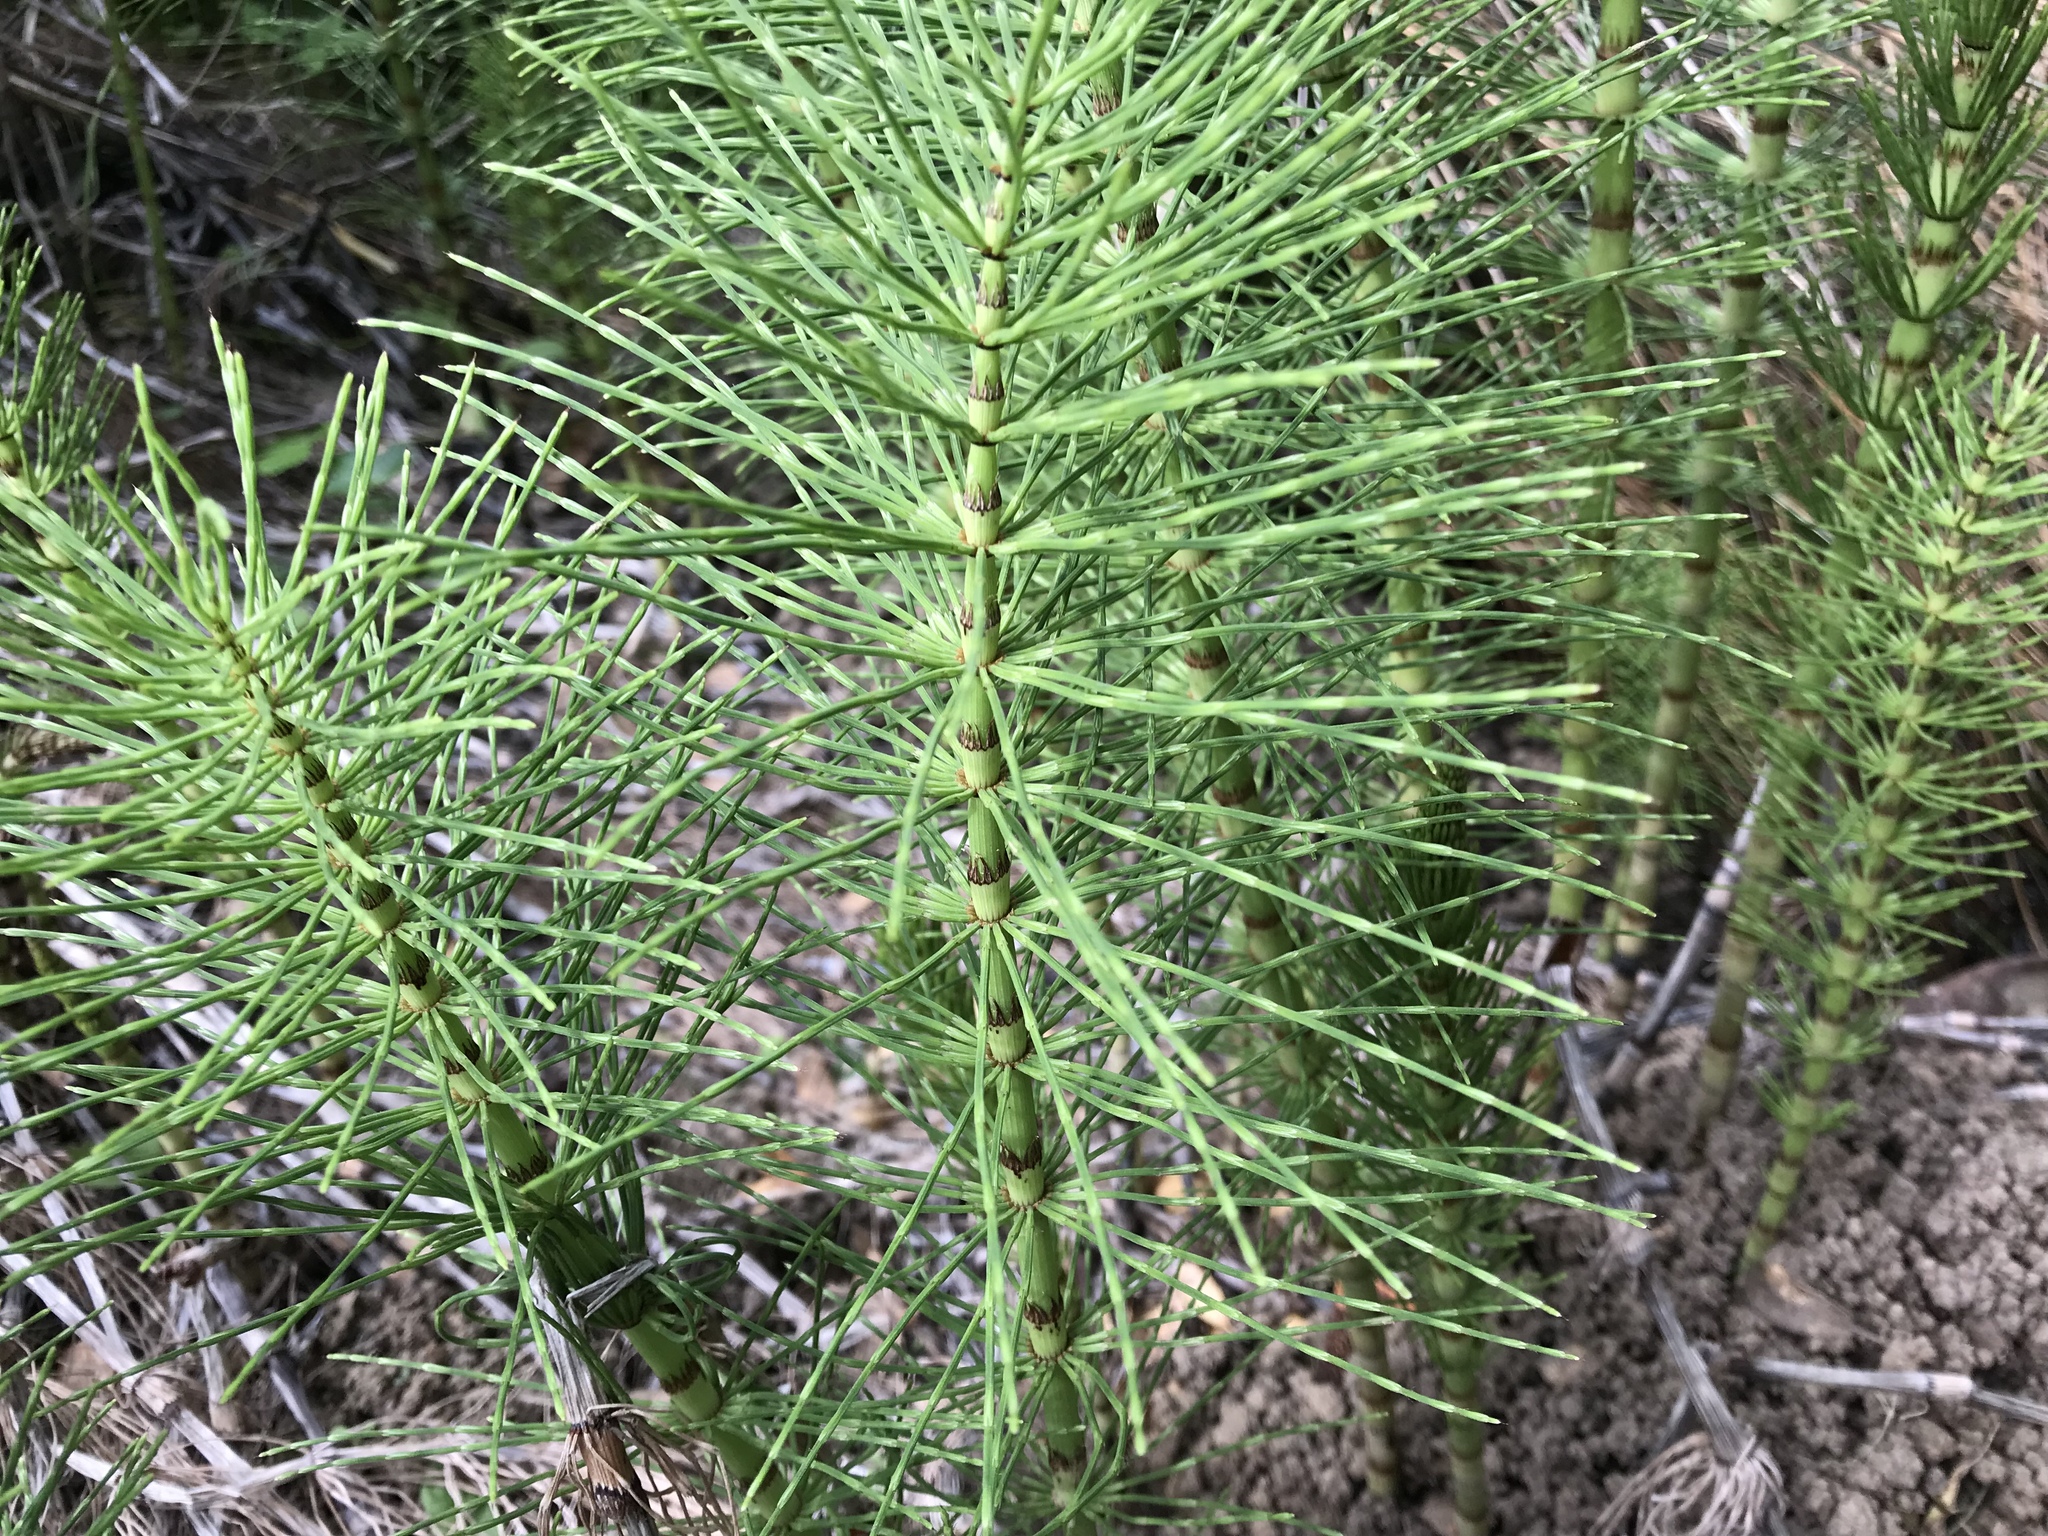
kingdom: Plantae
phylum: Tracheophyta
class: Polypodiopsida
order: Equisetales
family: Equisetaceae
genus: Equisetum
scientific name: Equisetum telmateia
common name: Great horsetail
